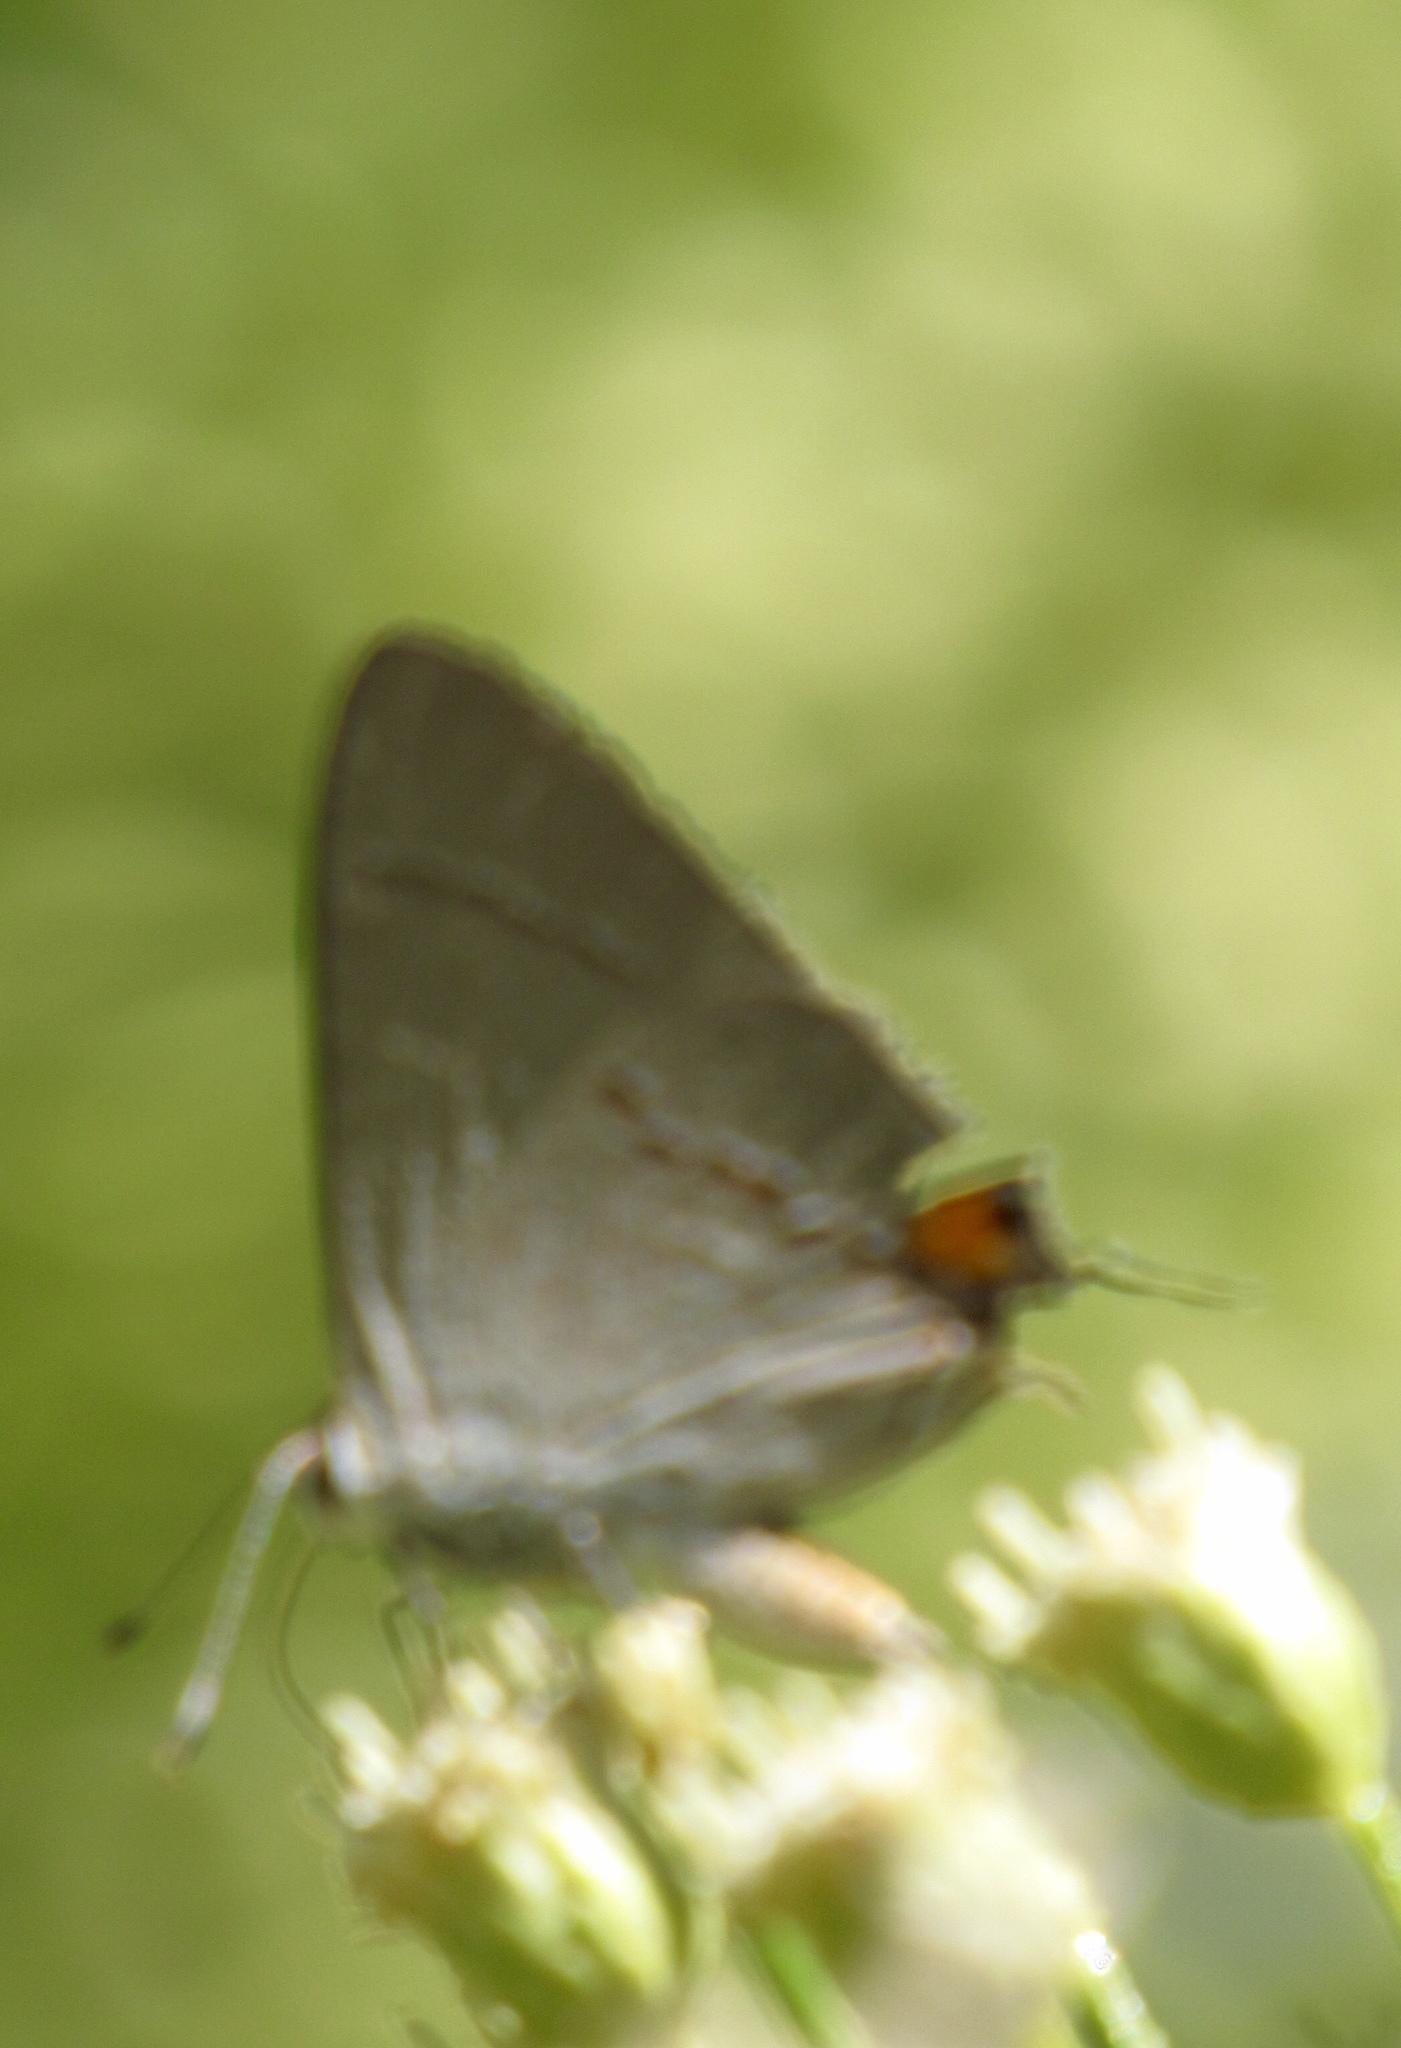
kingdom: Animalia
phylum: Arthropoda
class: Insecta
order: Lepidoptera
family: Lycaenidae
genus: Strymon
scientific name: Strymon melinus
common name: Gray hairstreak
